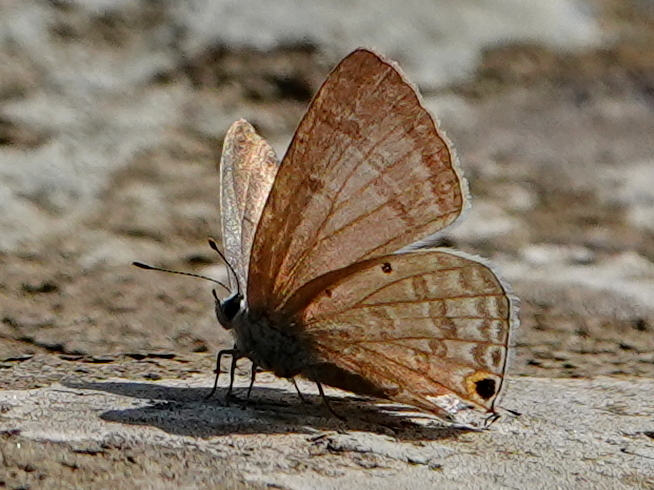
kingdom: Animalia
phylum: Arthropoda
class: Insecta
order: Lepidoptera
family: Lycaenidae
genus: Catochrysops
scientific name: Catochrysops strabo
